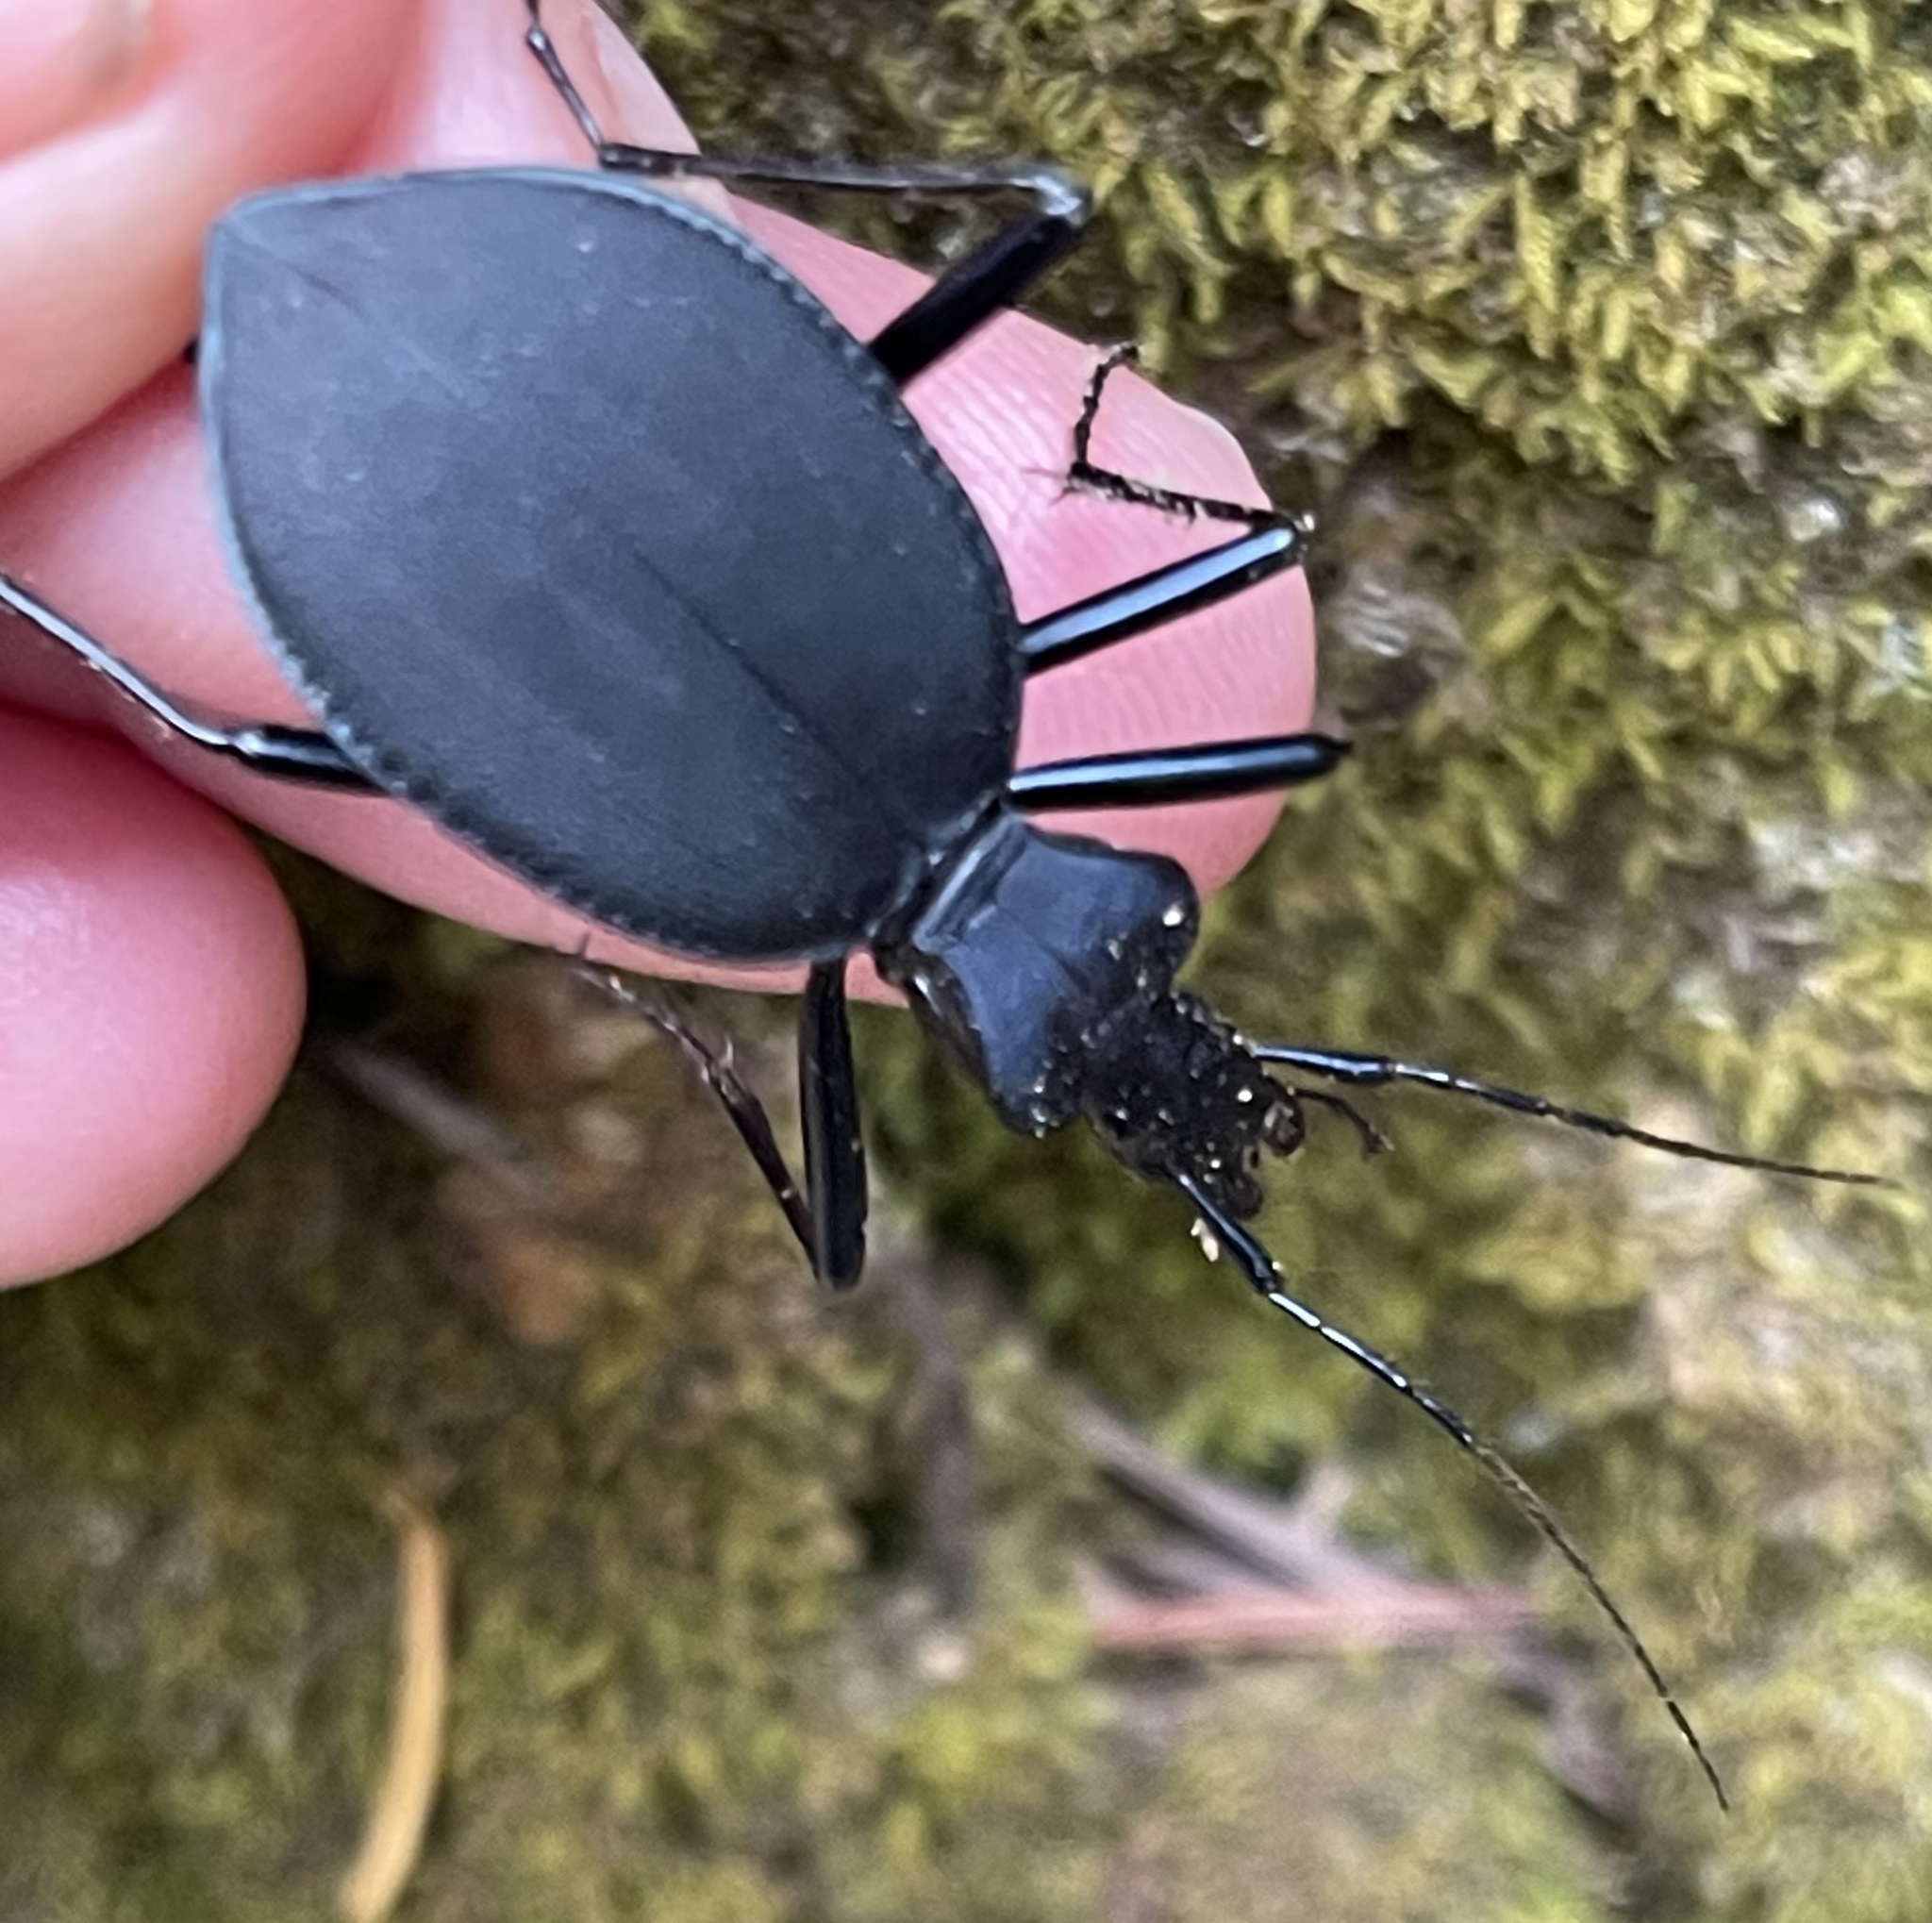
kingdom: Animalia
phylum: Arthropoda
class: Insecta
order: Coleoptera
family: Carabidae
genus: Scaphinotus
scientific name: Scaphinotus velutinus
